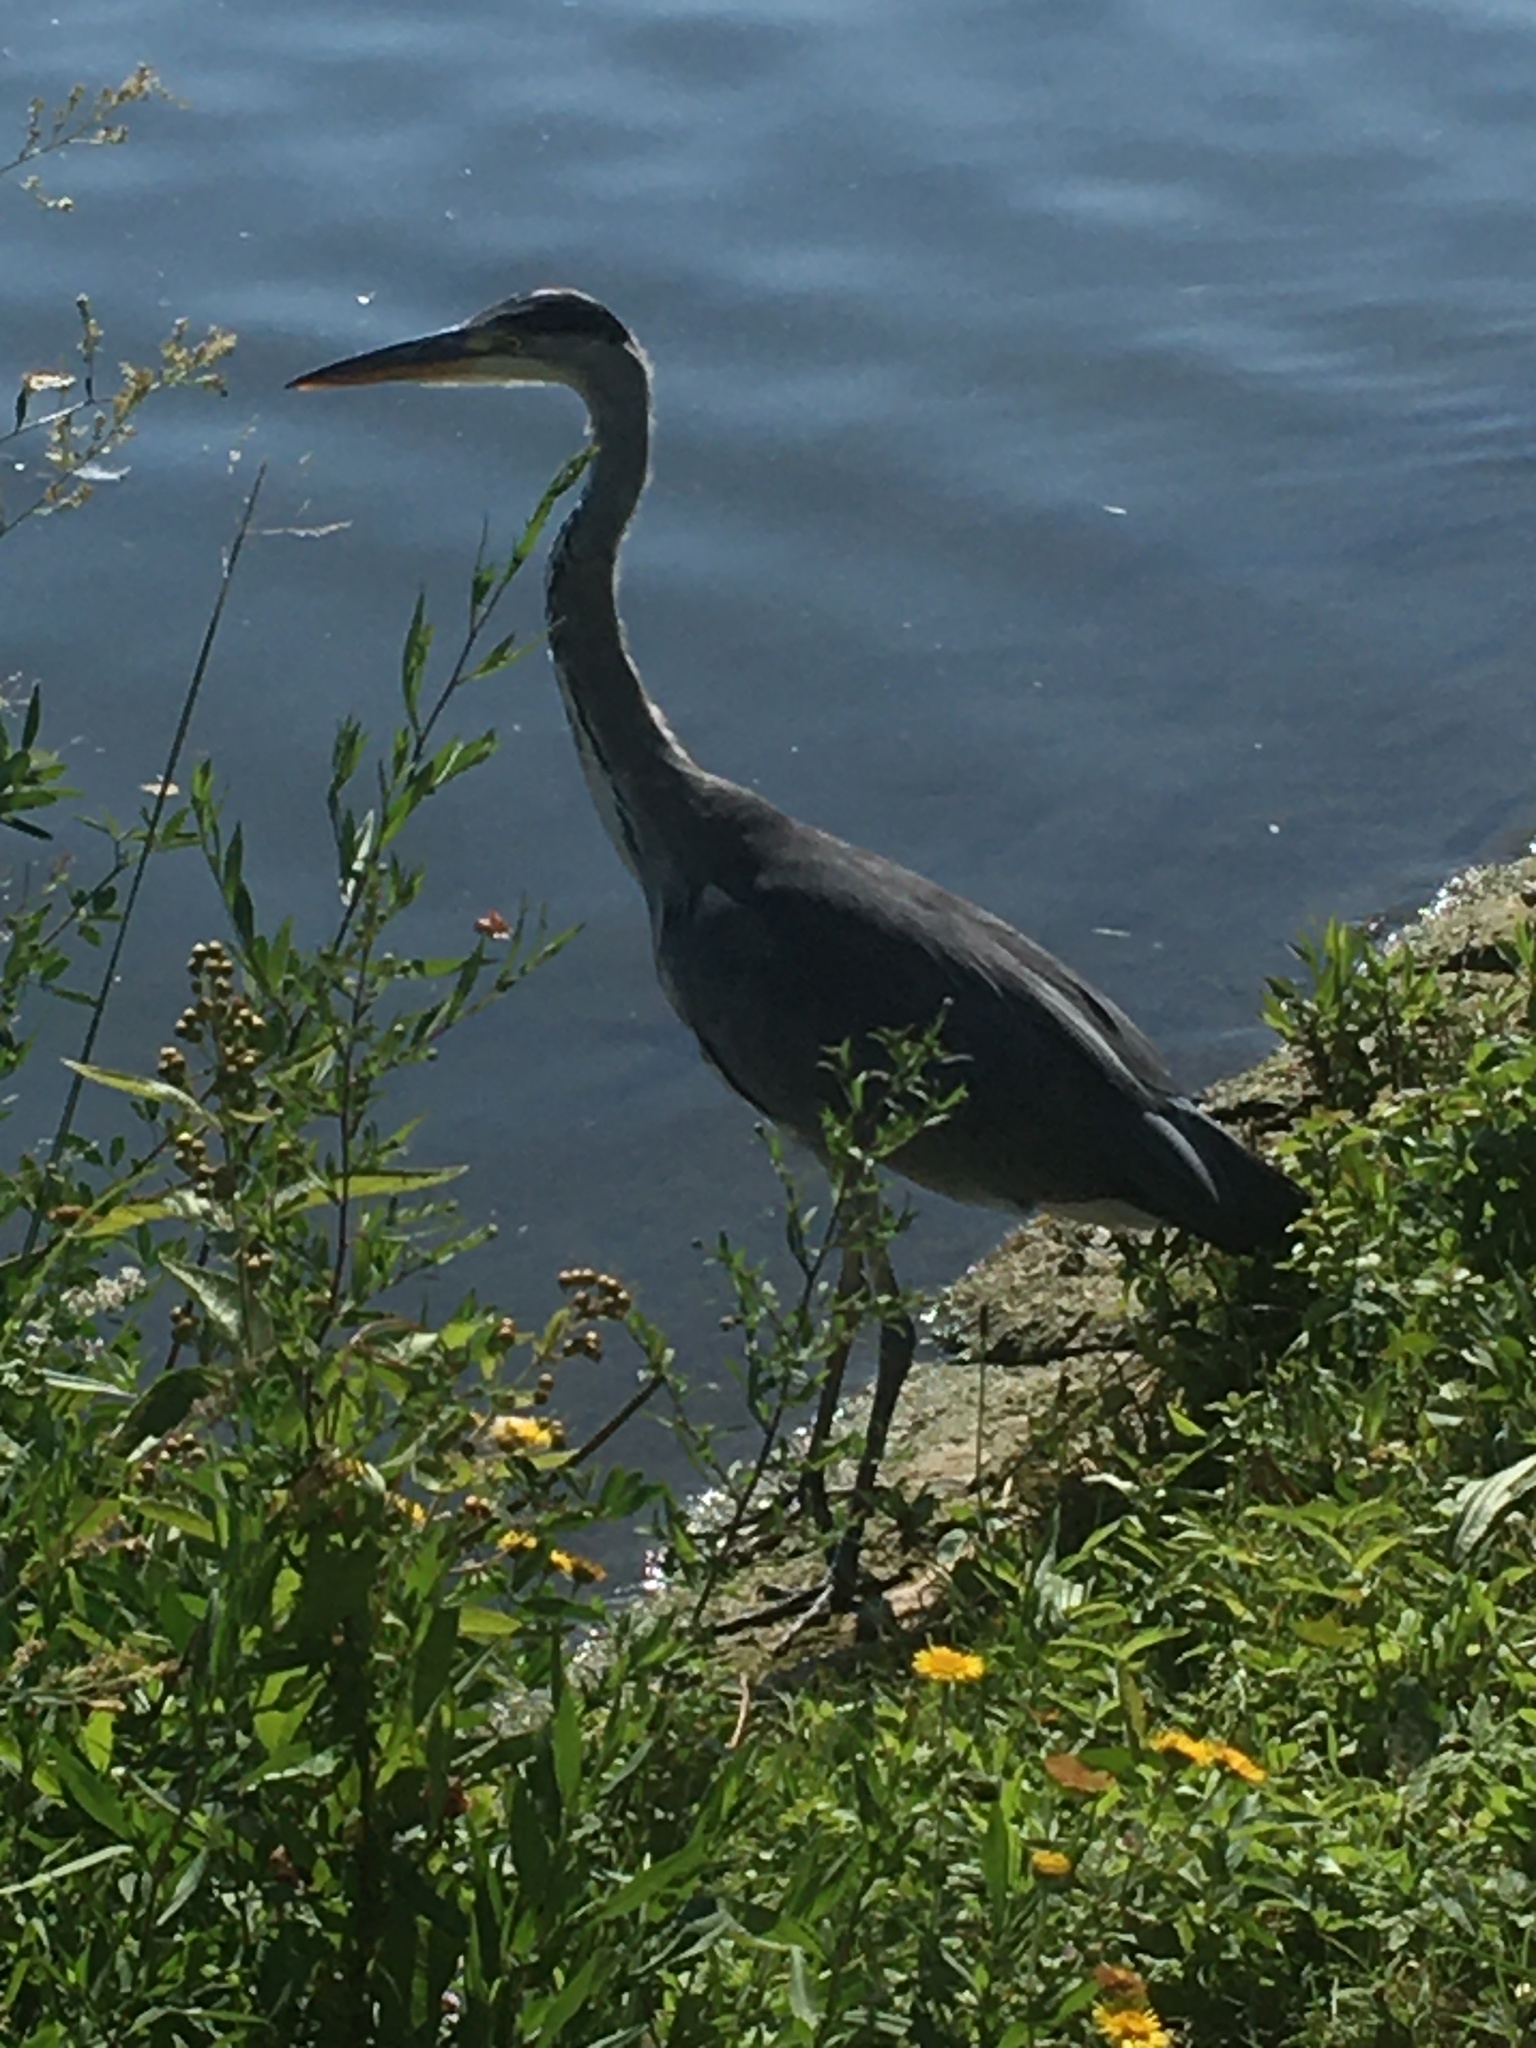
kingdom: Animalia
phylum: Chordata
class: Aves
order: Pelecaniformes
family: Ardeidae
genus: Ardea
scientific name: Ardea cinerea
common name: Grey heron
